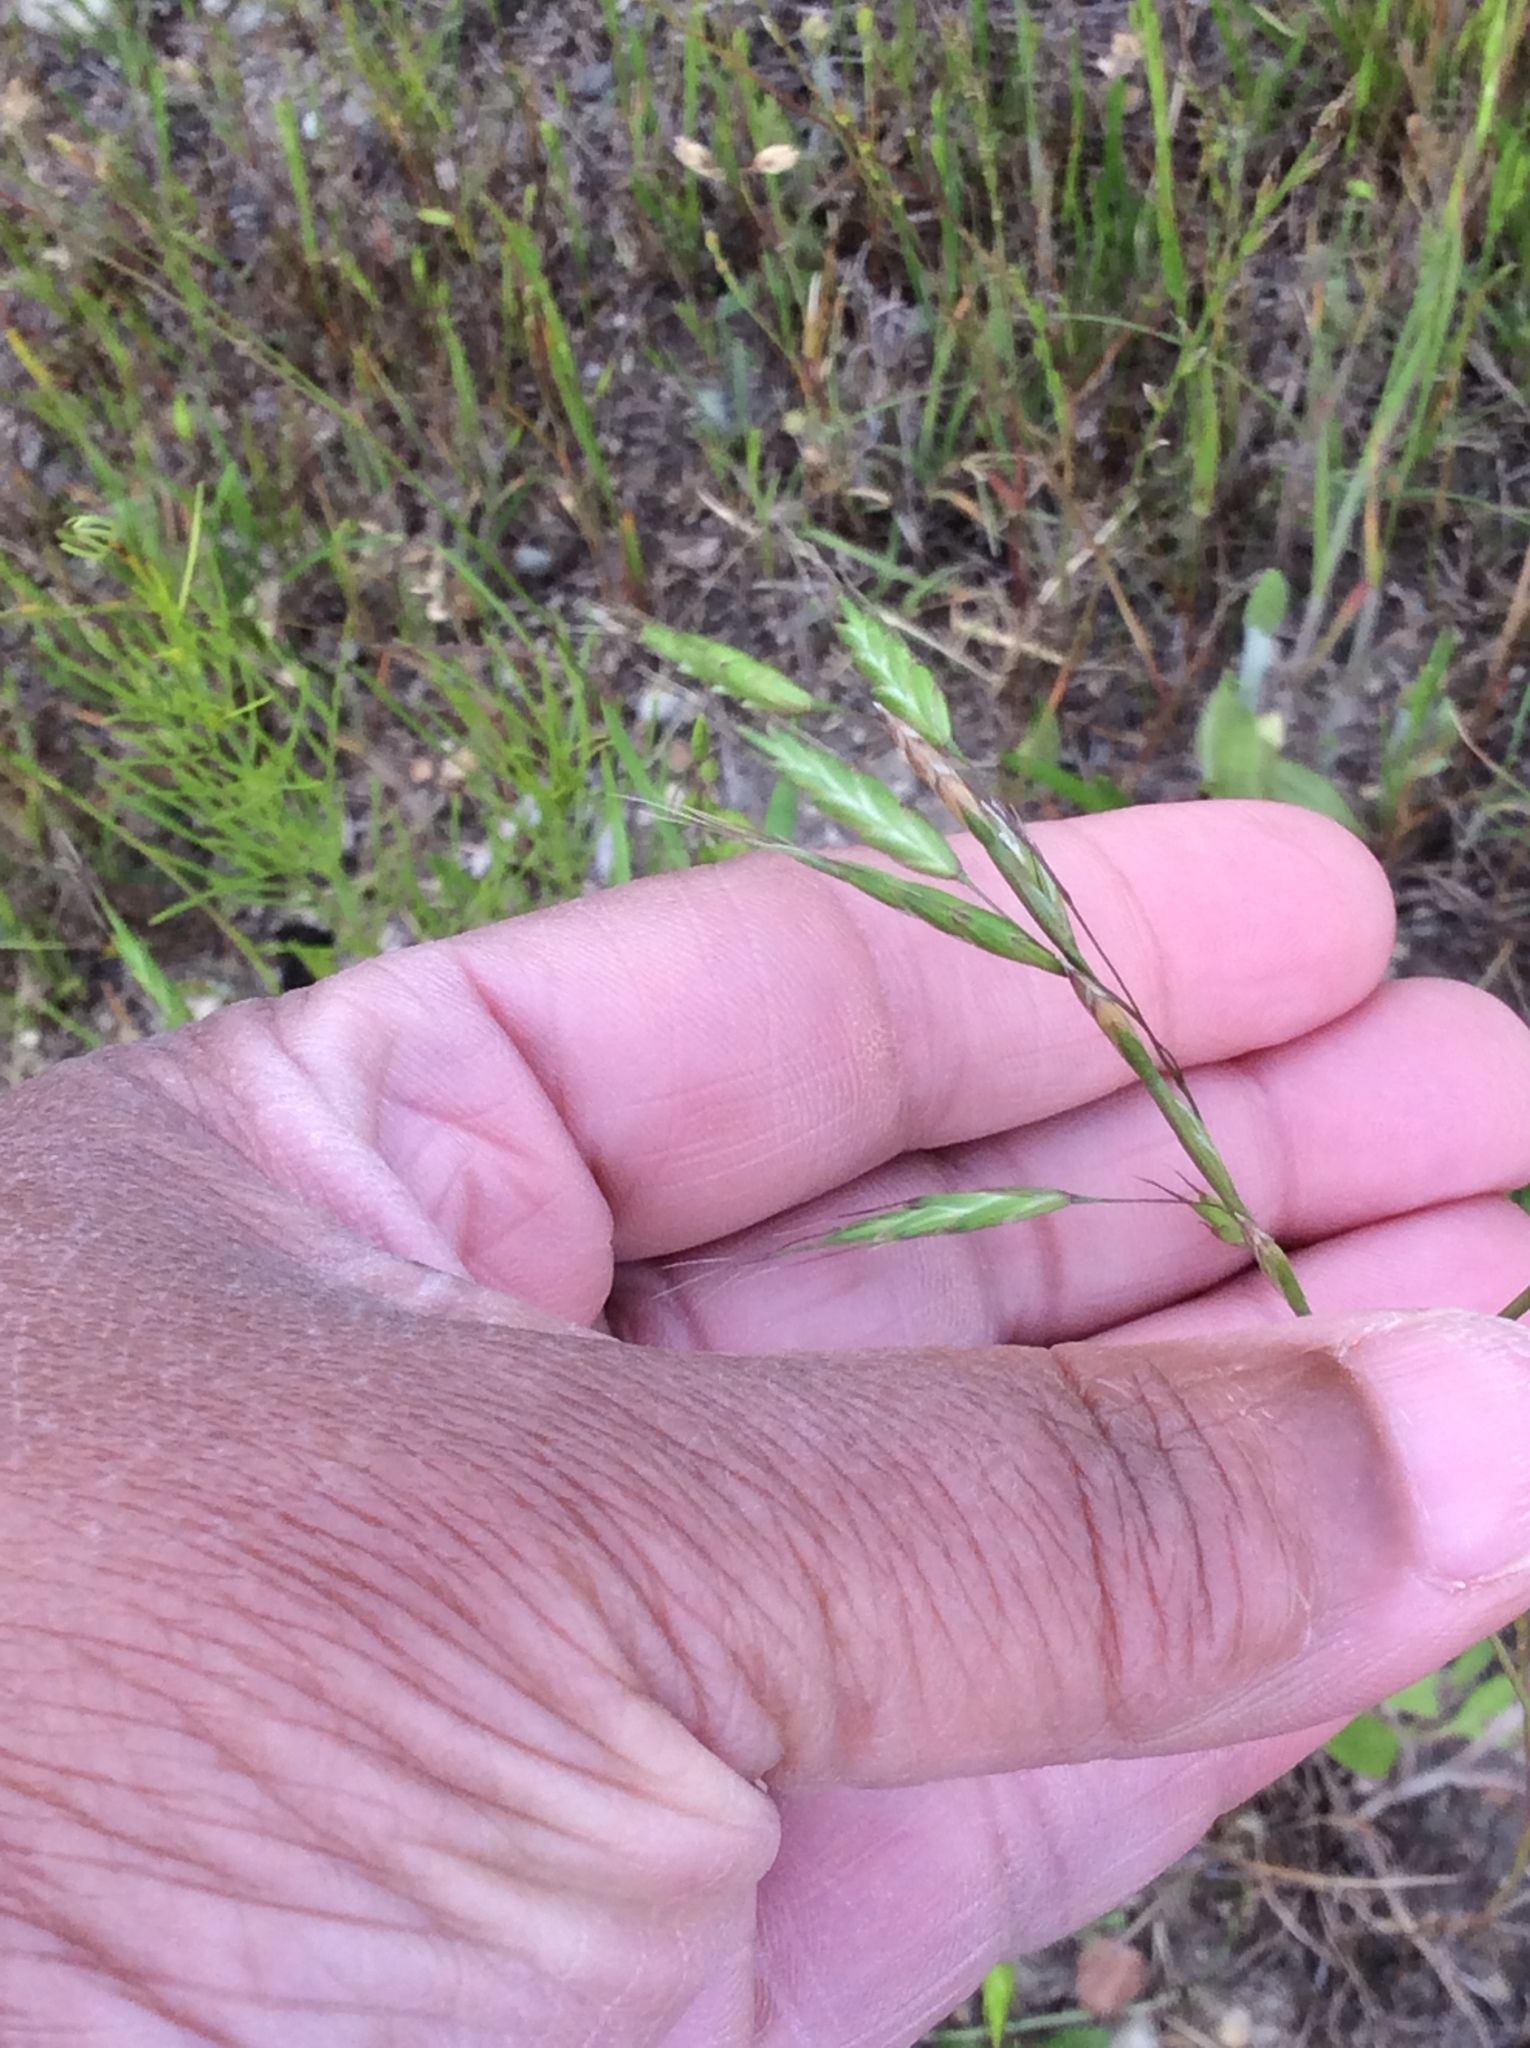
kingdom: Plantae
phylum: Tracheophyta
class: Liliopsida
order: Poales
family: Poaceae
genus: Bromus
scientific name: Bromus japonicus
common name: Japanese brome
